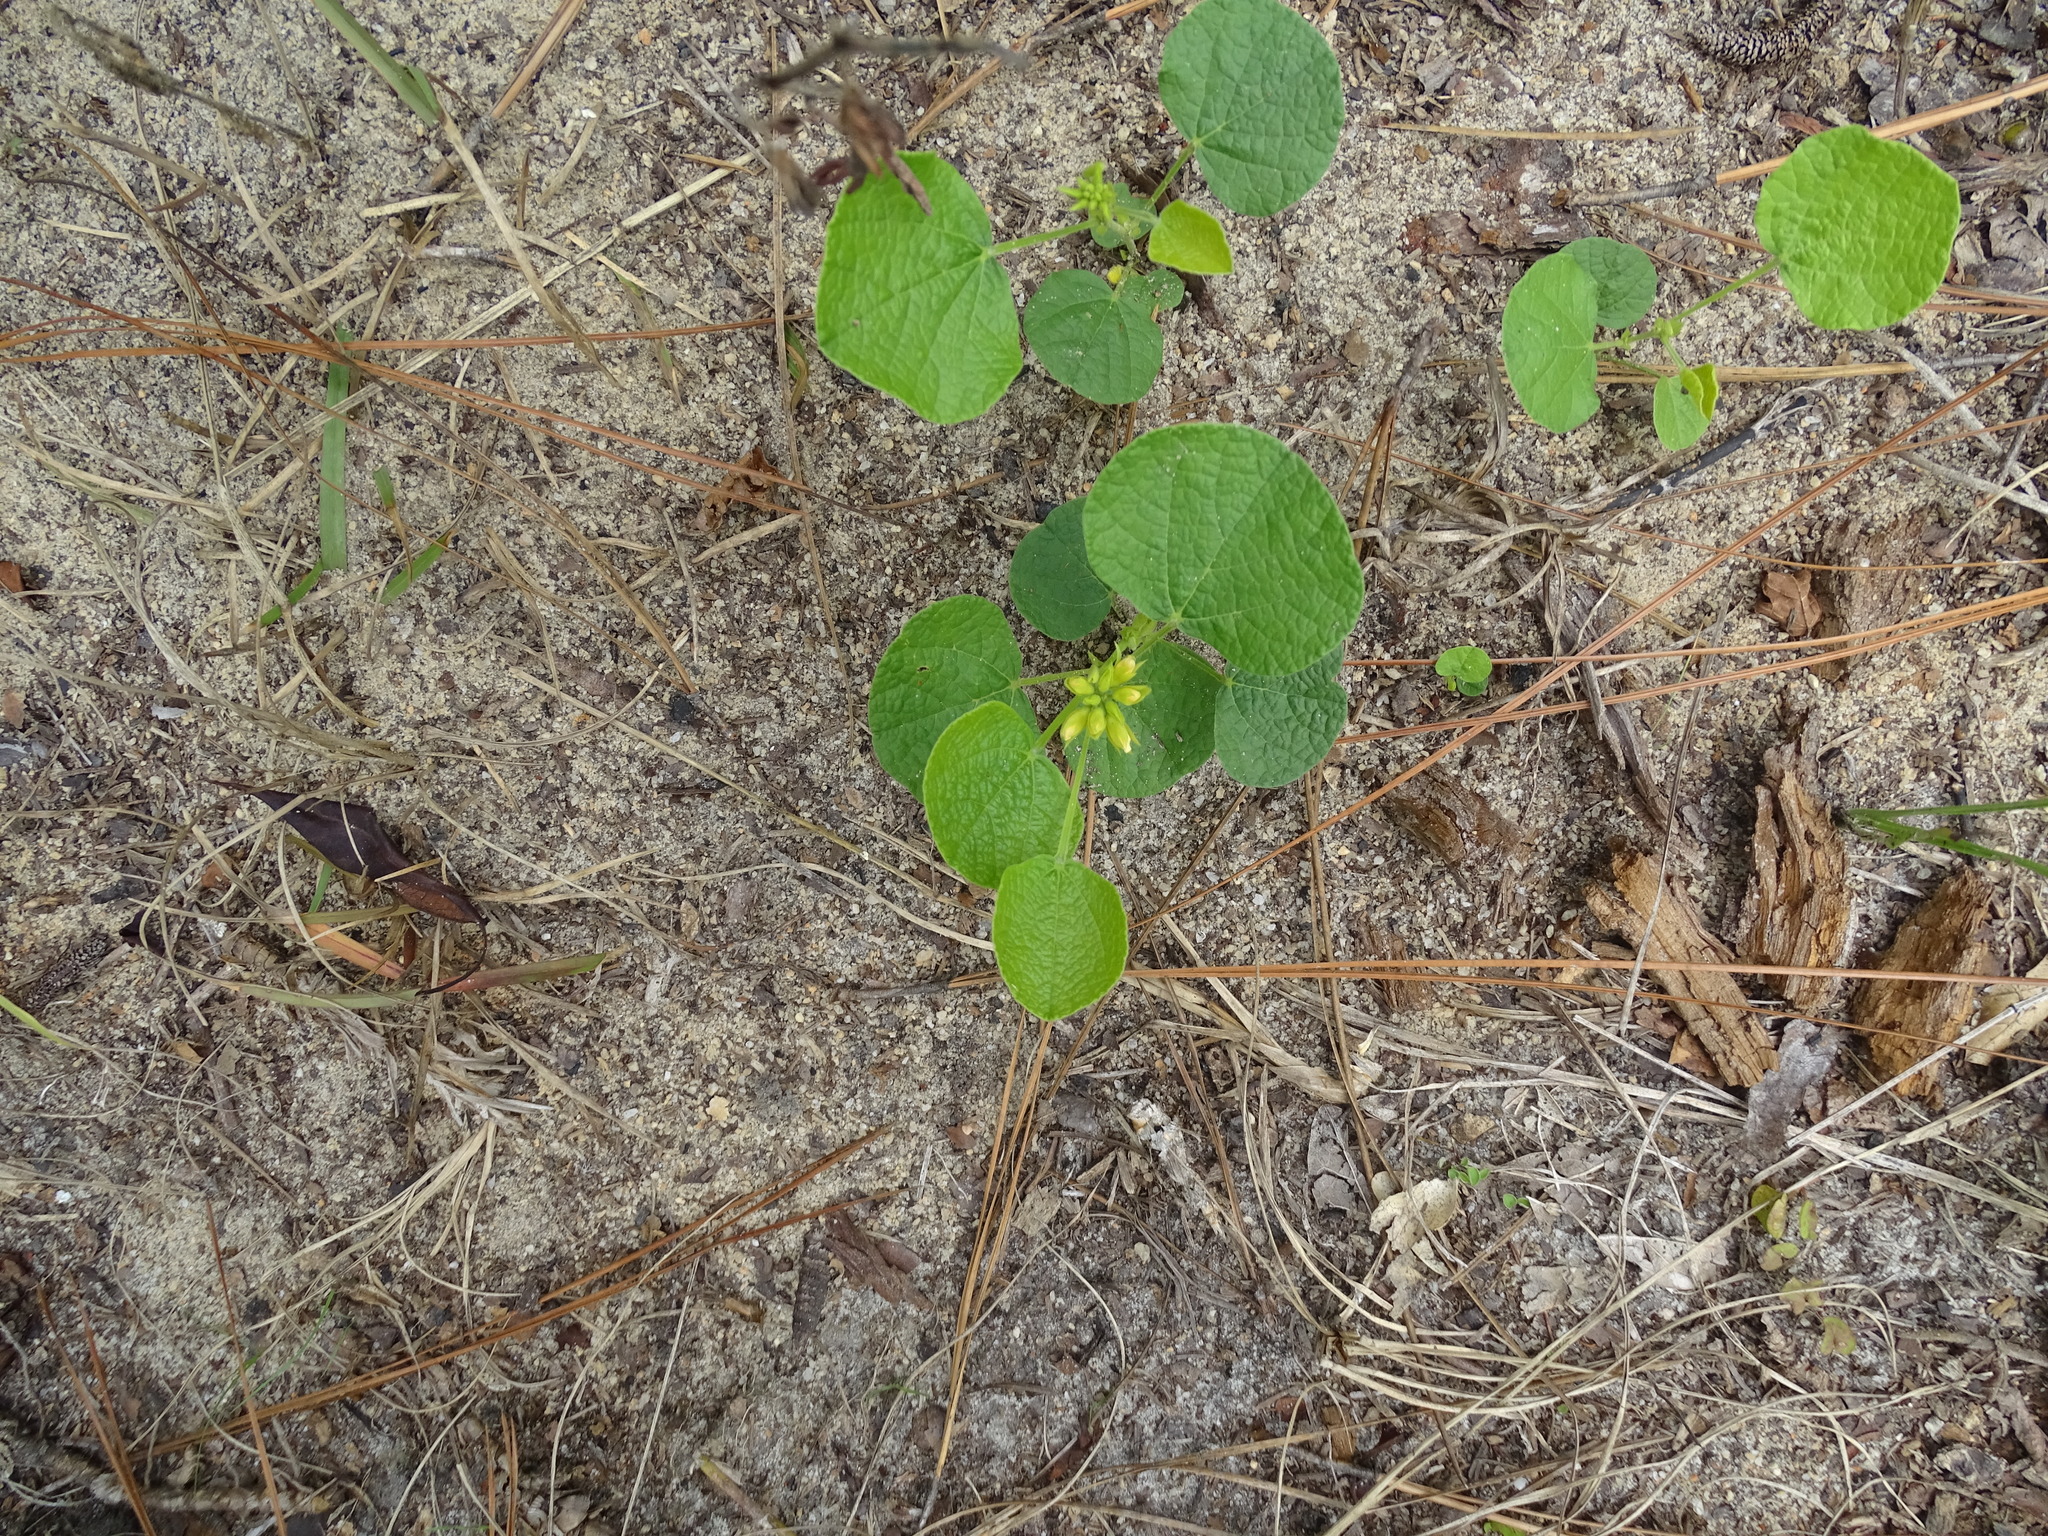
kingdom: Plantae
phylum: Tracheophyta
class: Magnoliopsida
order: Fabales
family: Fabaceae
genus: Rhynchosia
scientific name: Rhynchosia reniformis
